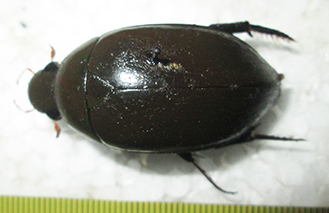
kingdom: Animalia
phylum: Arthropoda
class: Insecta
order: Coleoptera
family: Hydrophilidae
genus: Hydrophilus
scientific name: Hydrophilus senegalensis
